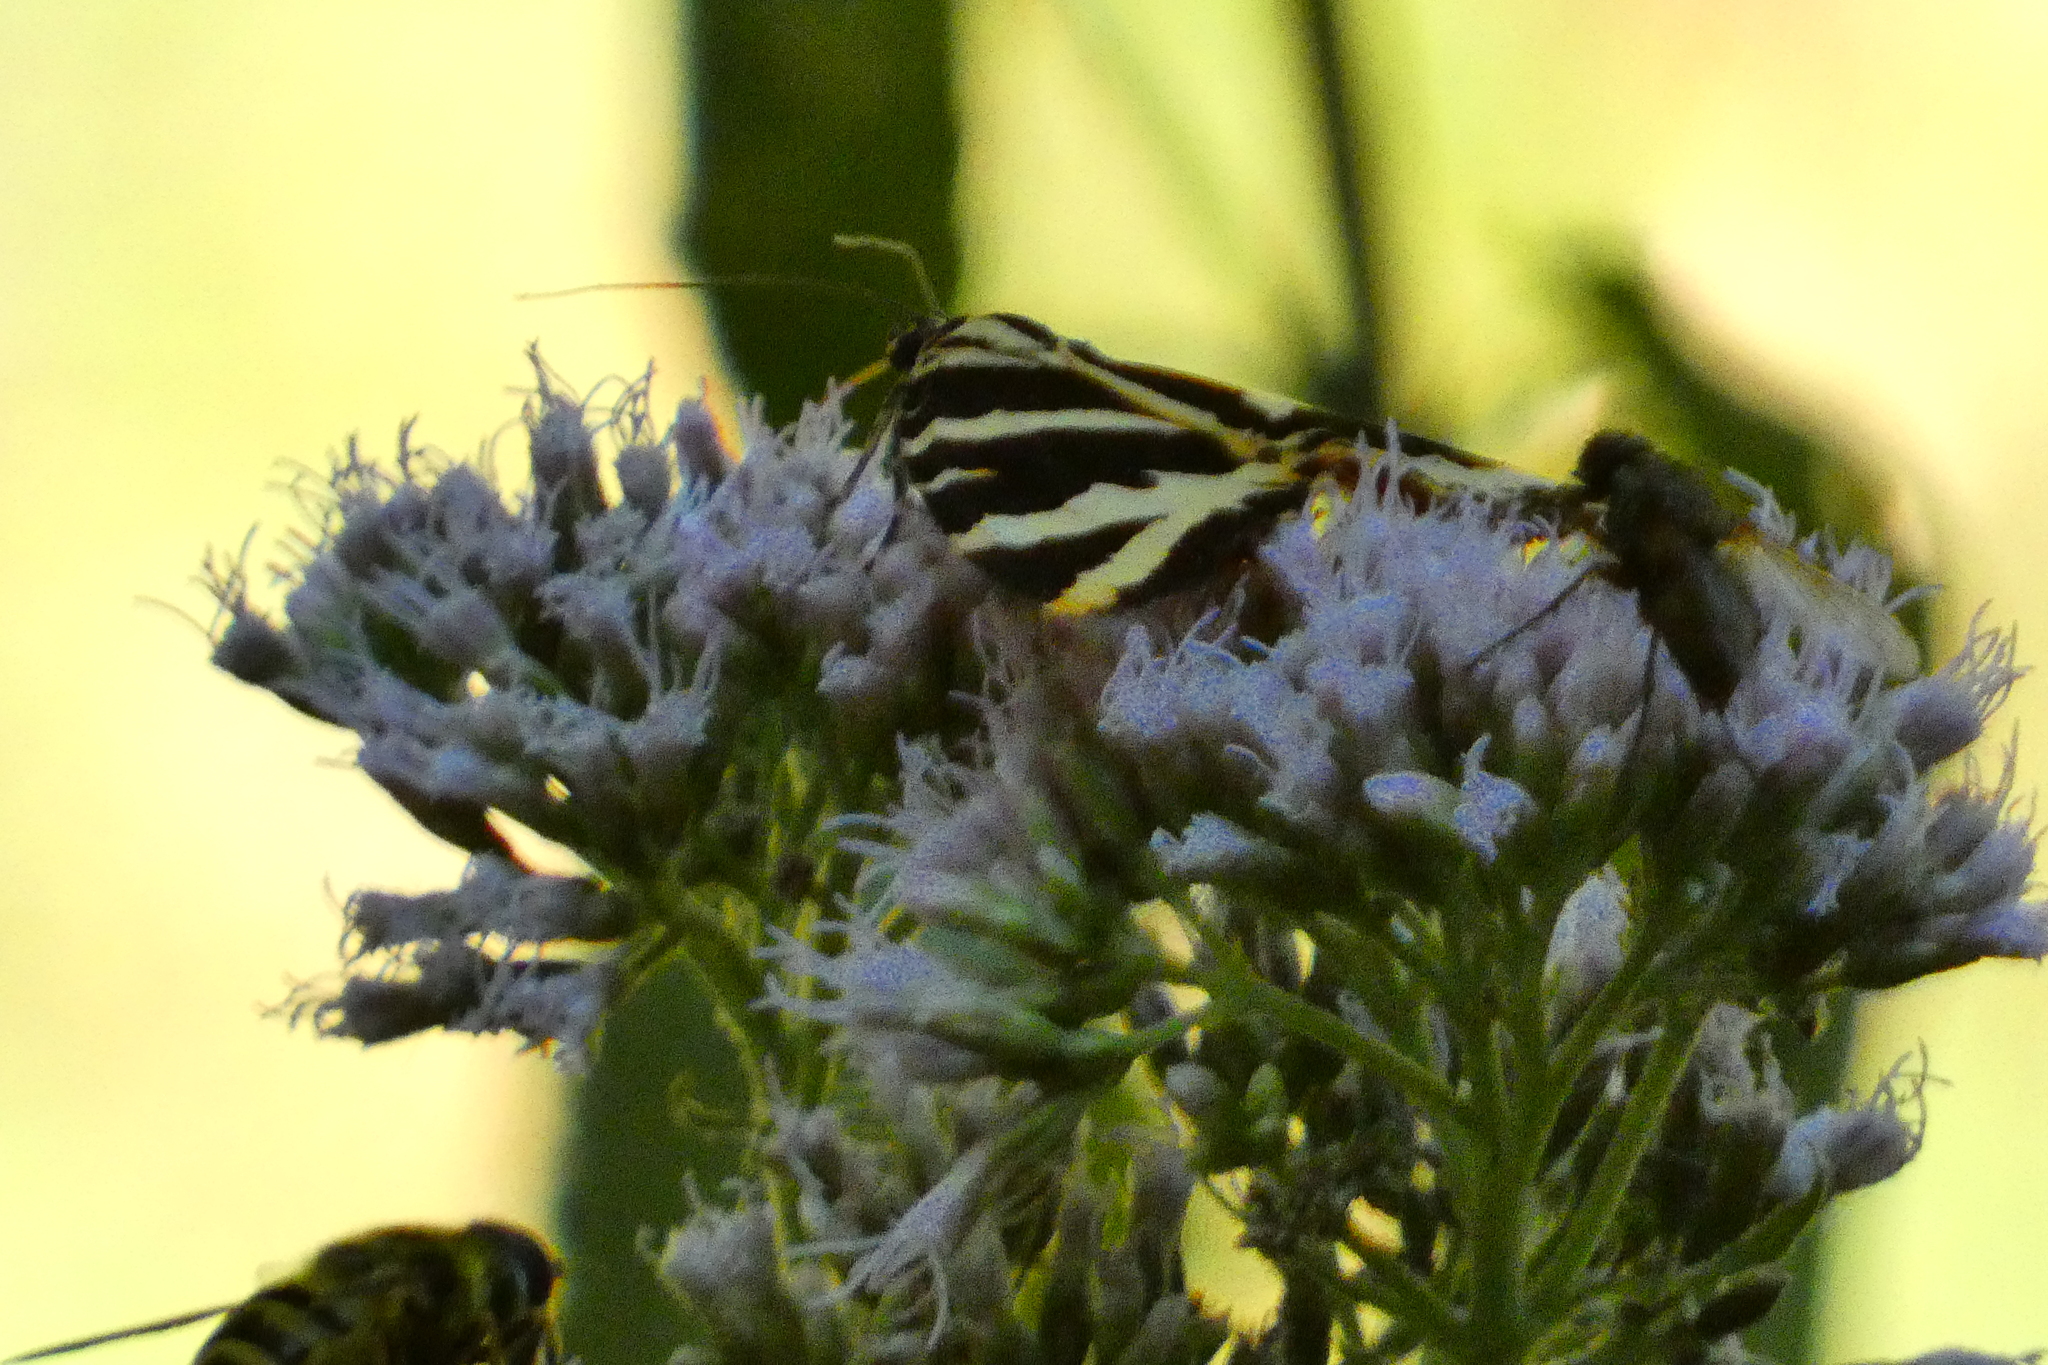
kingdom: Animalia
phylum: Arthropoda
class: Insecta
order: Lepidoptera
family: Erebidae
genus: Euplagia
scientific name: Euplagia quadripunctaria
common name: Jersey tiger
